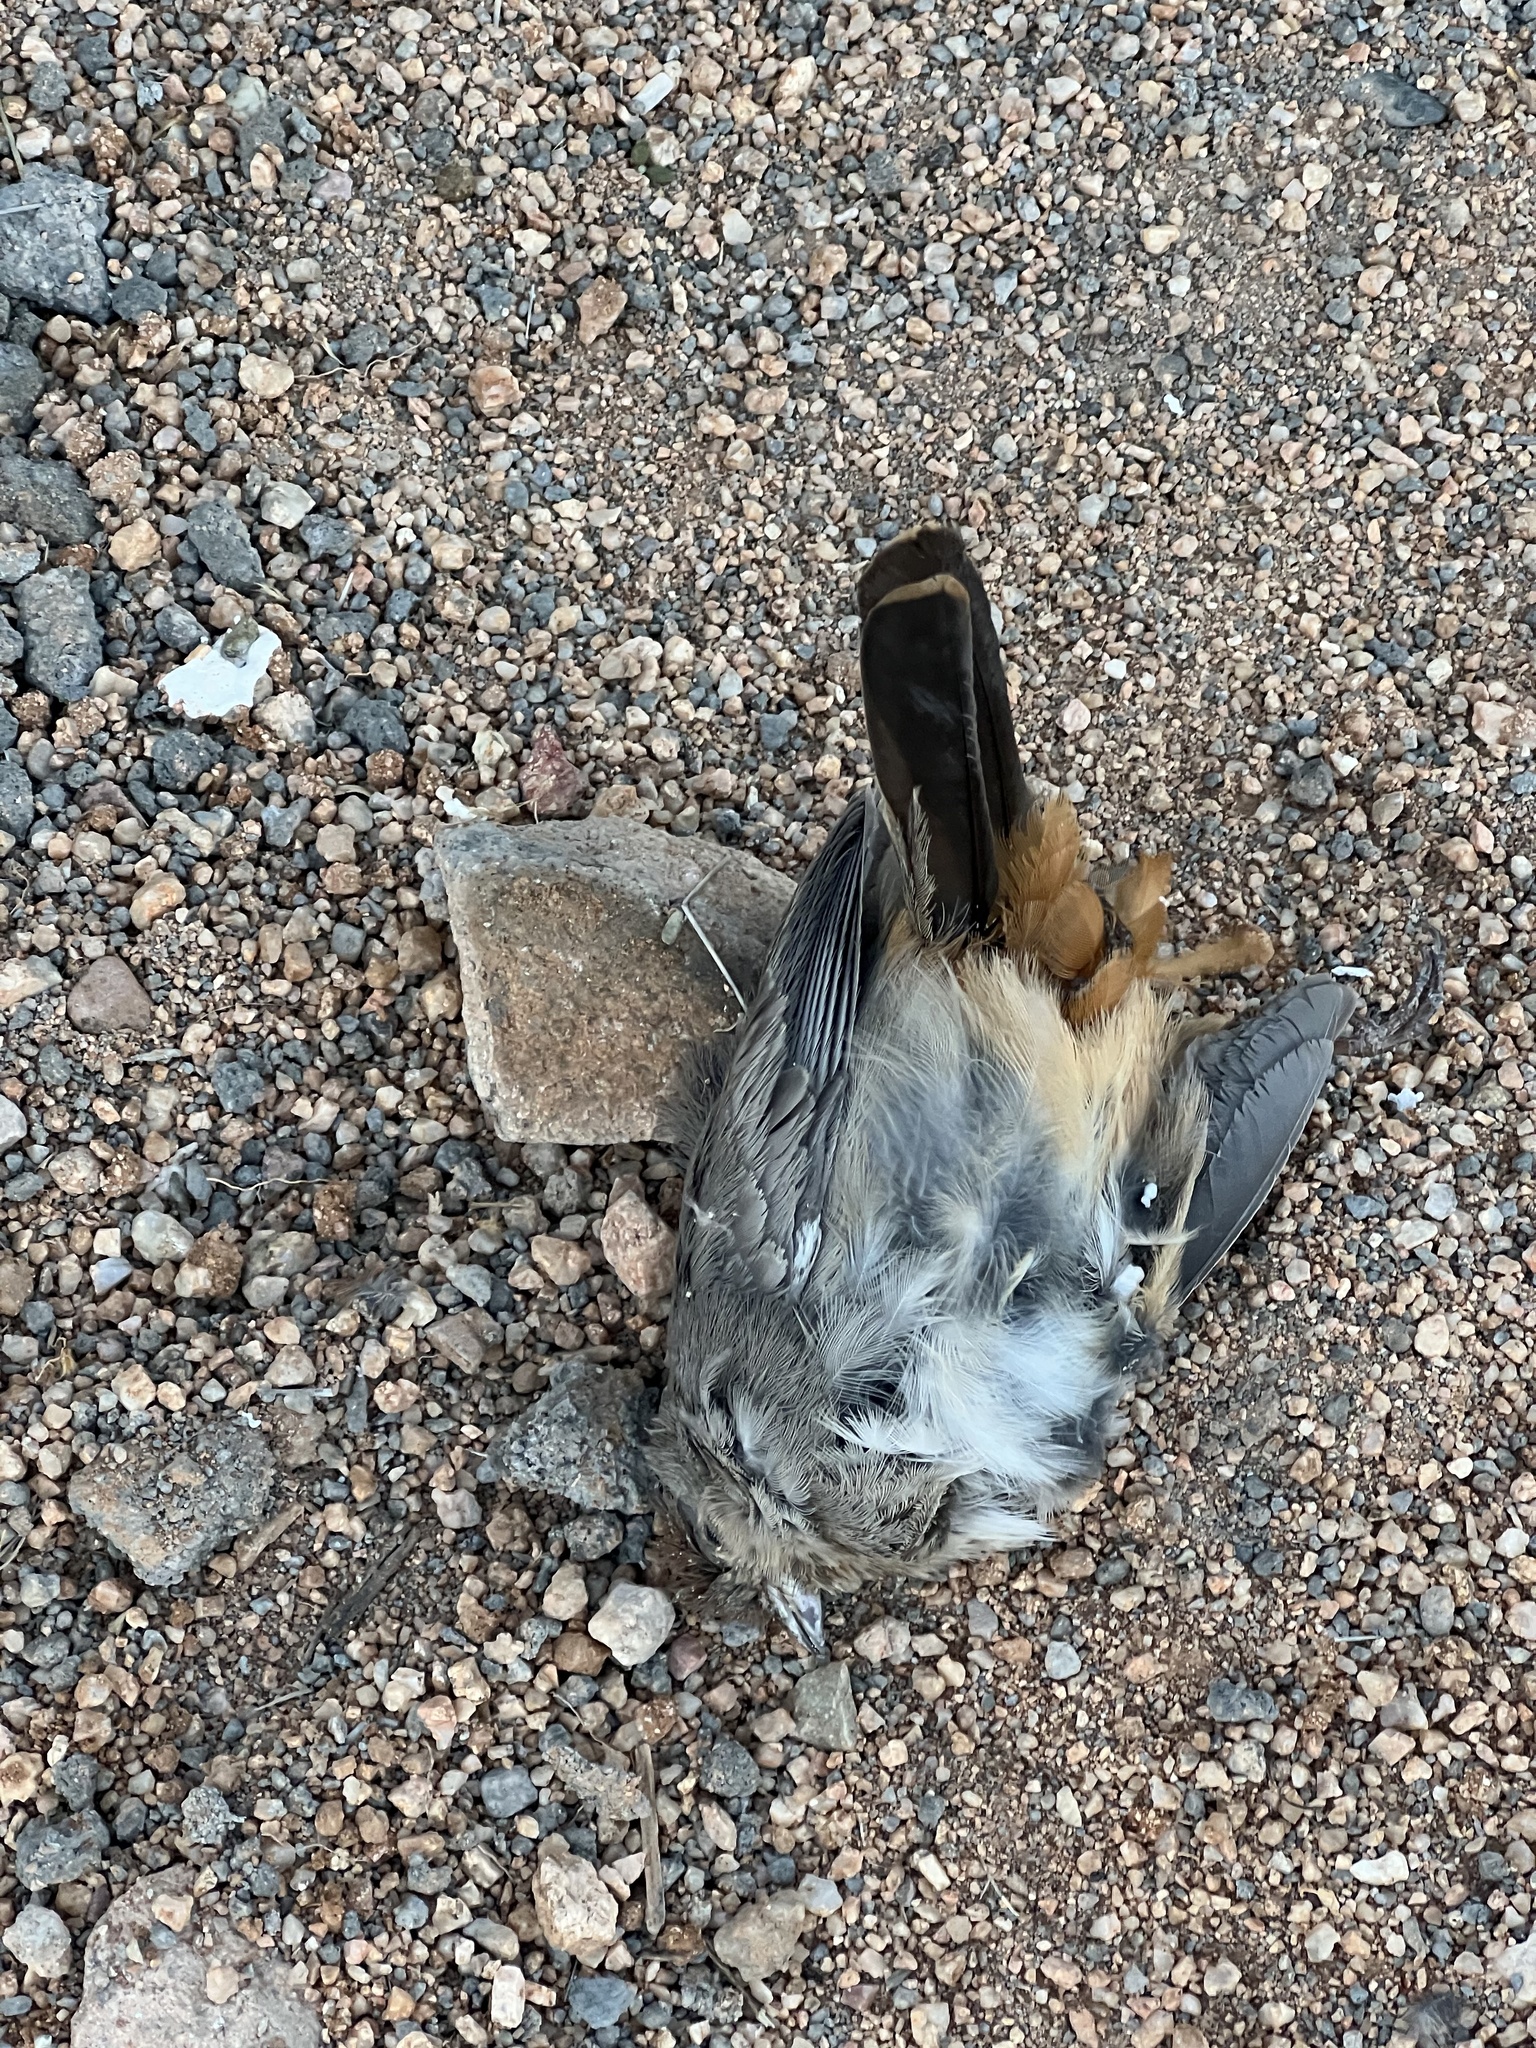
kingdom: Animalia
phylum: Chordata
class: Aves
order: Passeriformes
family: Passerellidae
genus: Melozone
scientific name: Melozone fusca
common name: Canyon towhee
